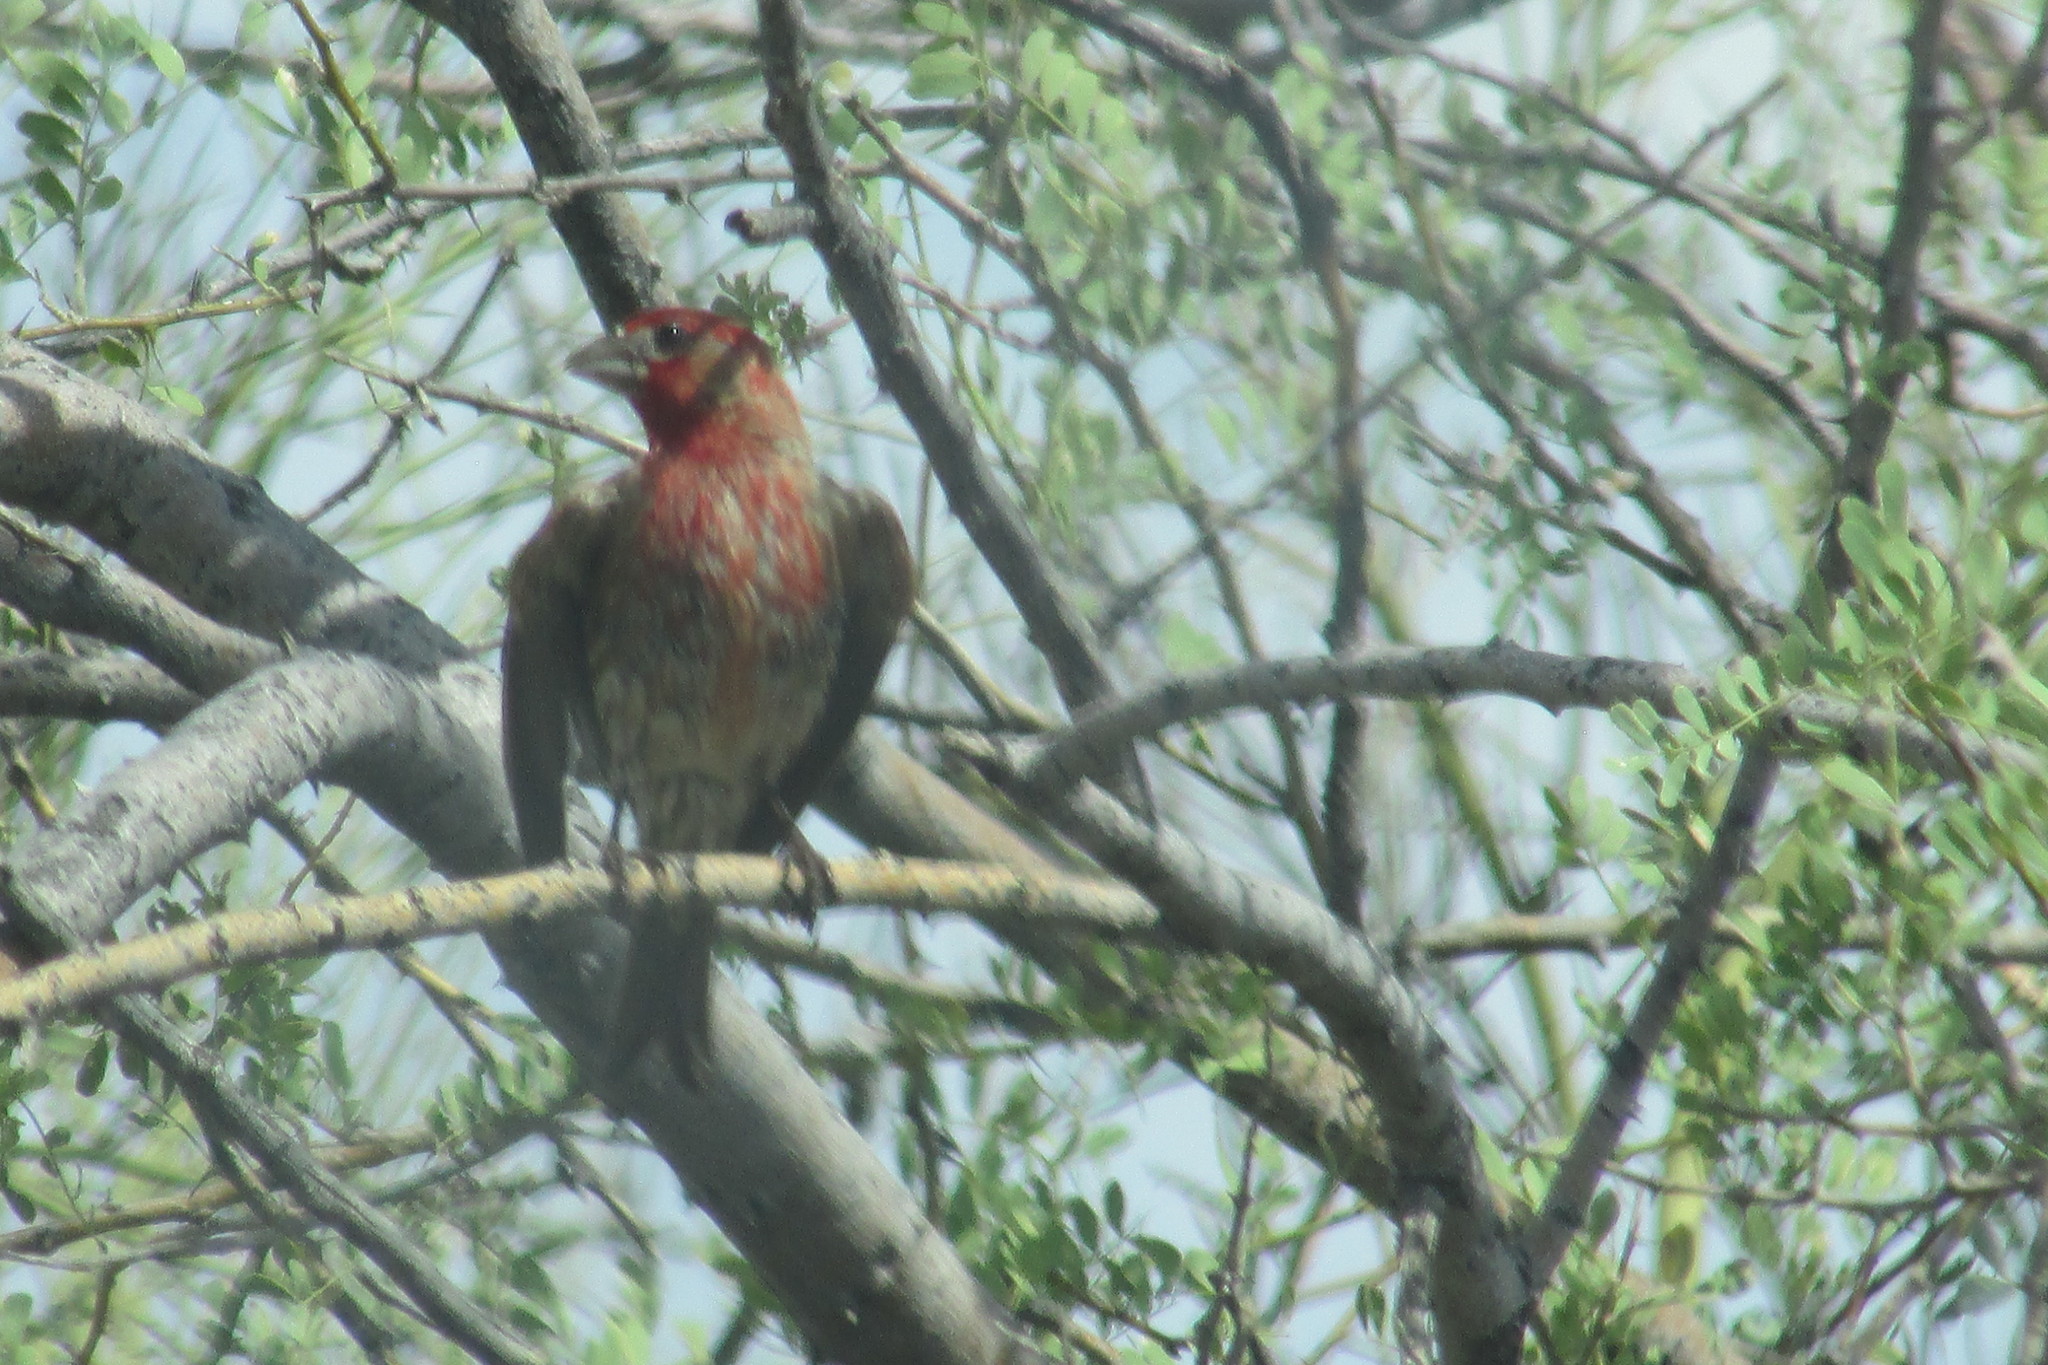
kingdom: Animalia
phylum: Chordata
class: Aves
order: Passeriformes
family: Fringillidae
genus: Haemorhous
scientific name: Haemorhous mexicanus
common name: House finch
